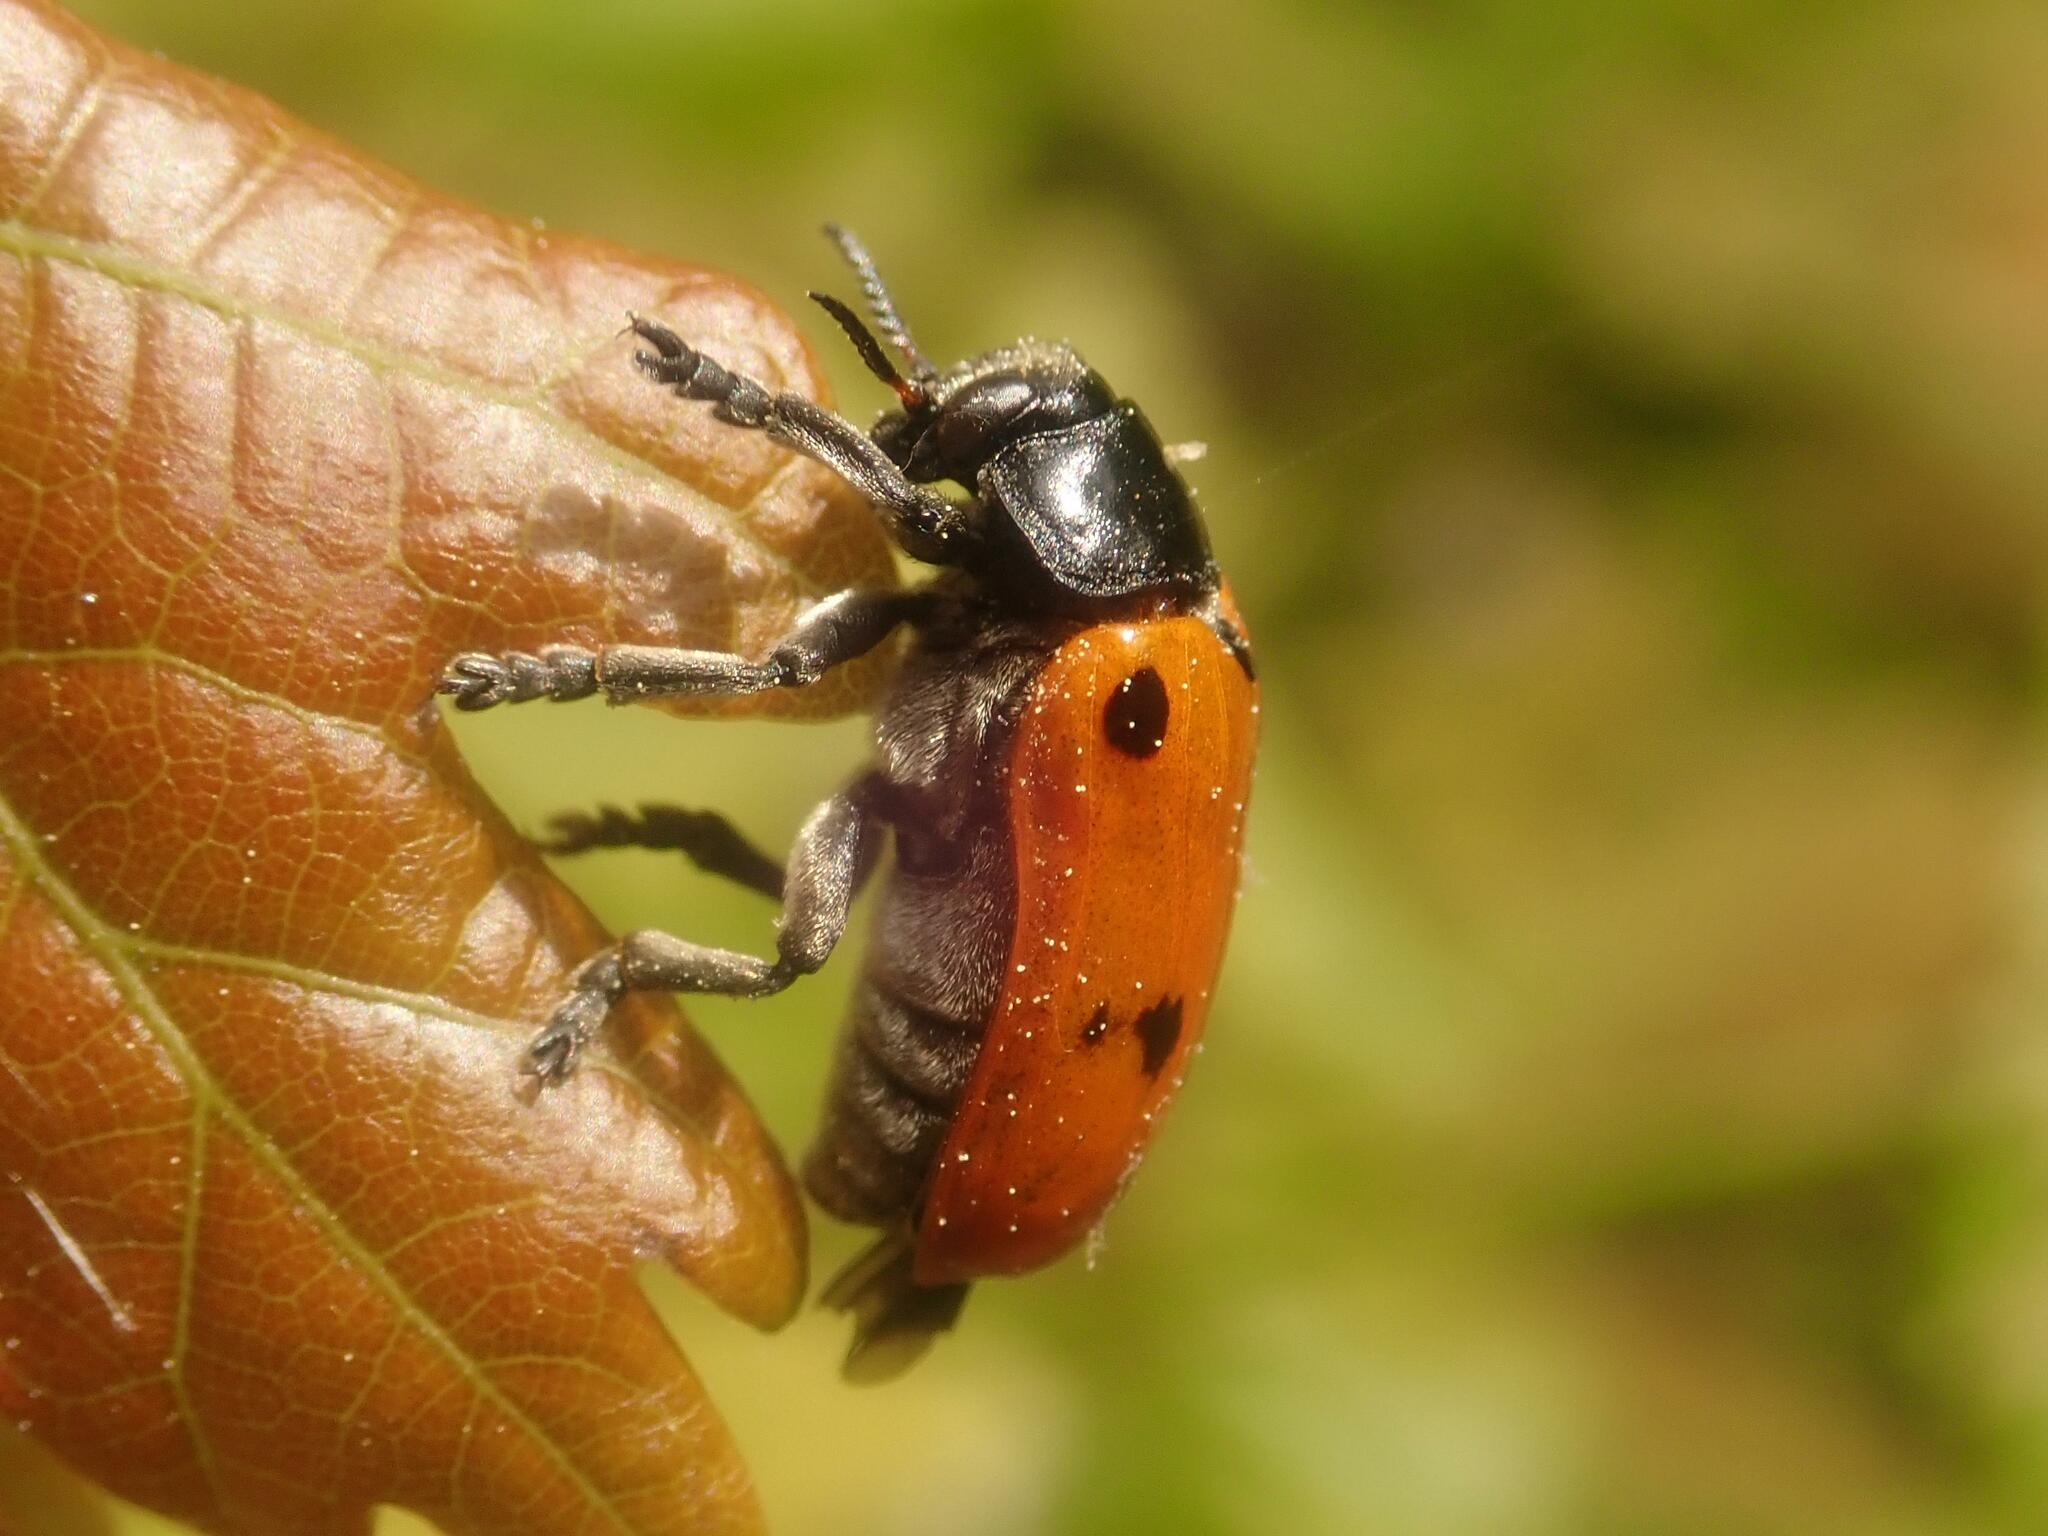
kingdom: Animalia
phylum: Arthropoda
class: Insecta
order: Coleoptera
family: Chrysomelidae
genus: Clytra
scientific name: Clytra quadripunctata
